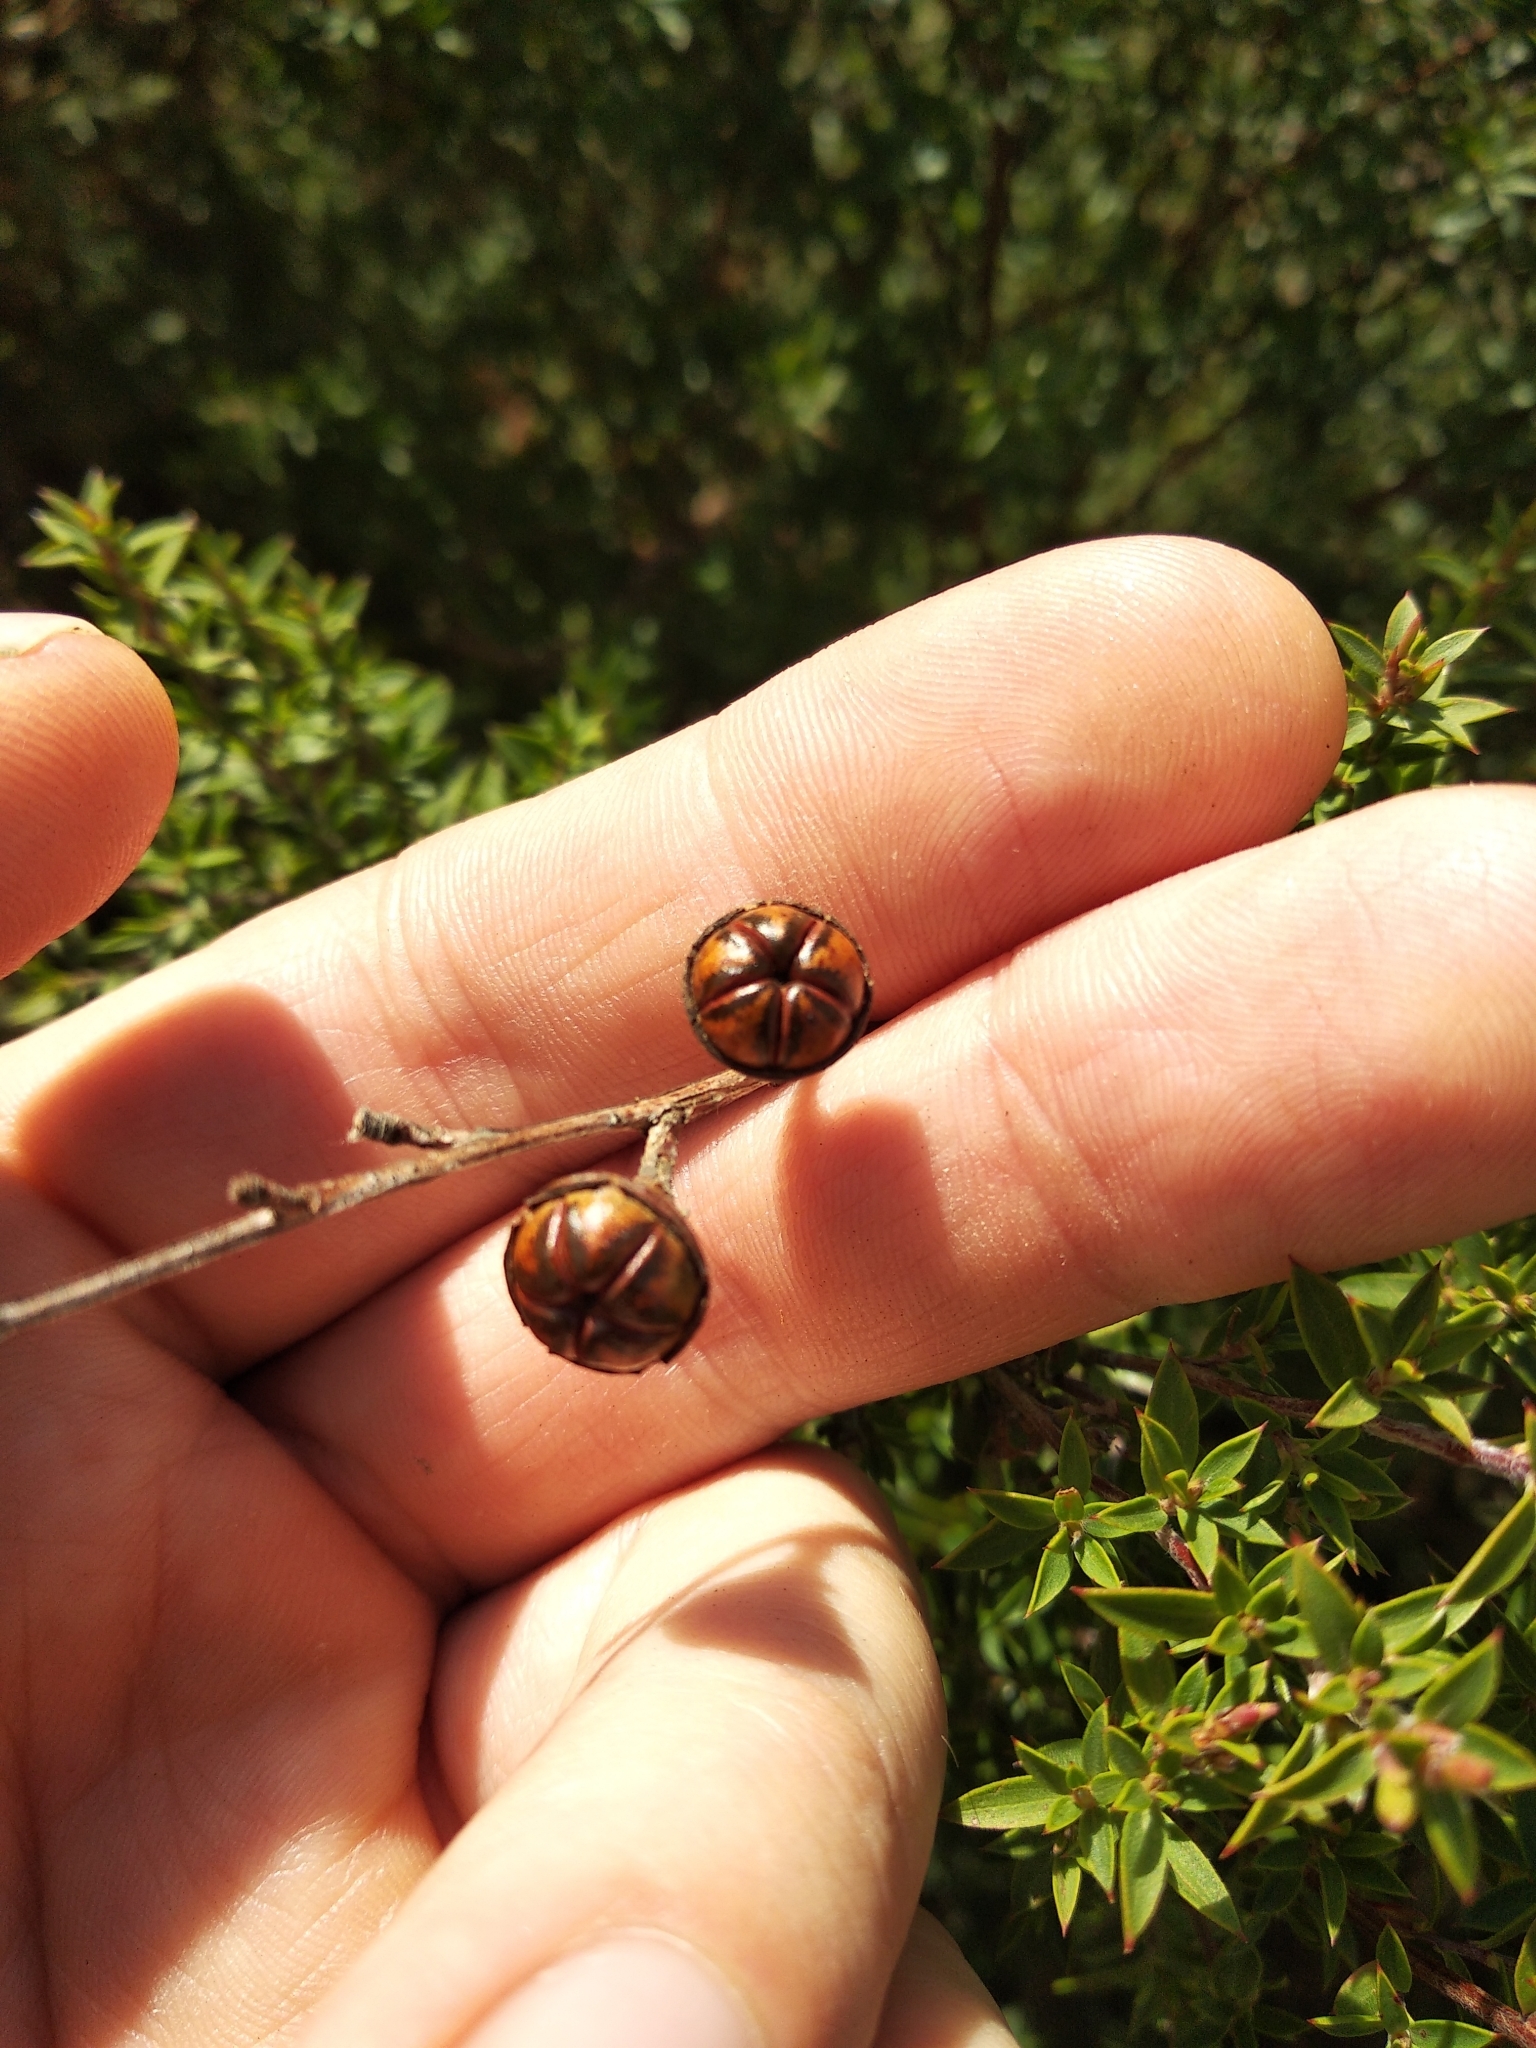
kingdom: Plantae
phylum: Tracheophyta
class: Magnoliopsida
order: Myrtales
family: Myrtaceae
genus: Leptospermum
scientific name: Leptospermum scoparium
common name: Broom tea-tree
